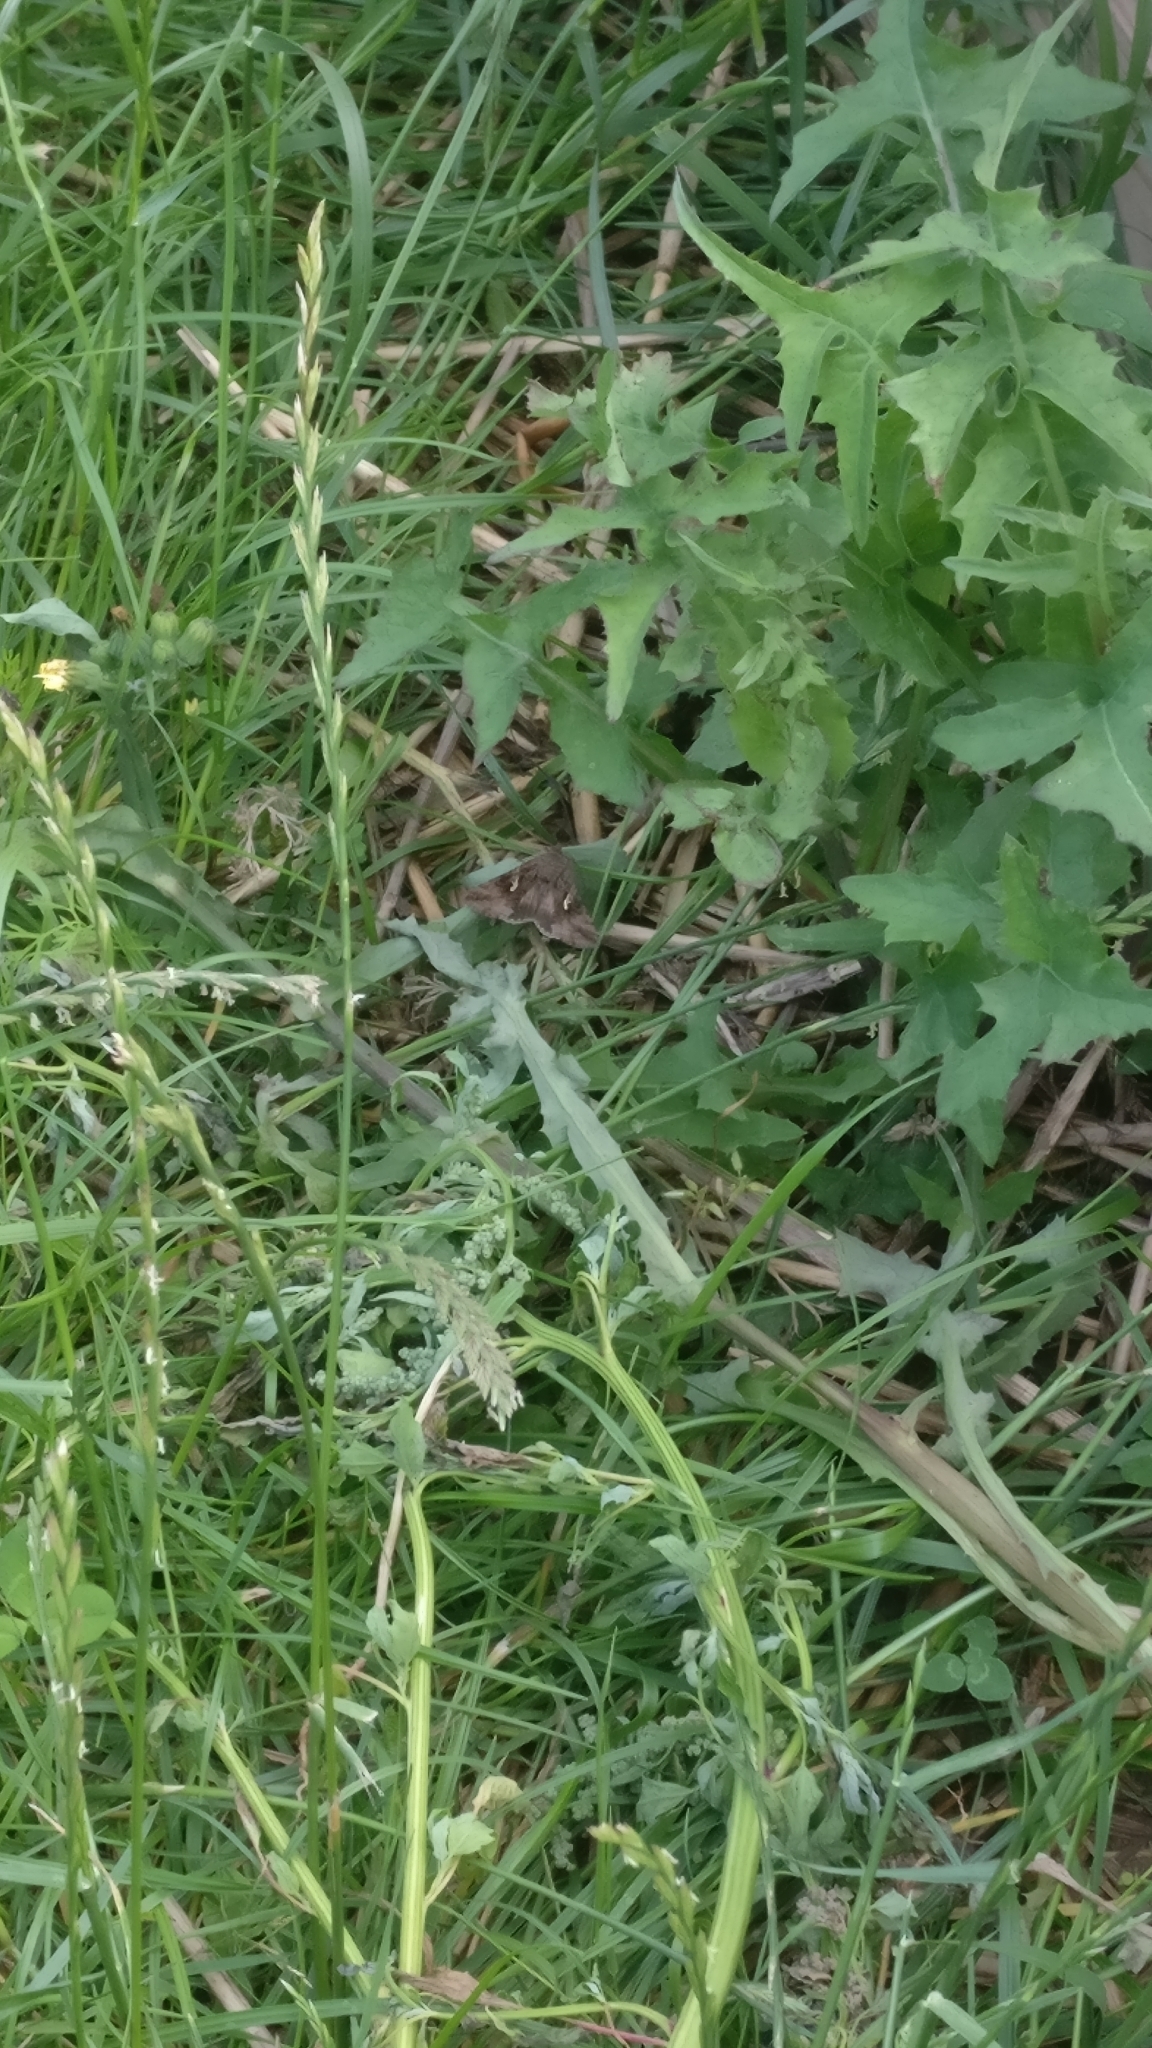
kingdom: Animalia
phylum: Arthropoda
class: Insecta
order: Lepidoptera
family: Noctuidae
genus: Autographa
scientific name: Autographa gamma
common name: Silver y
